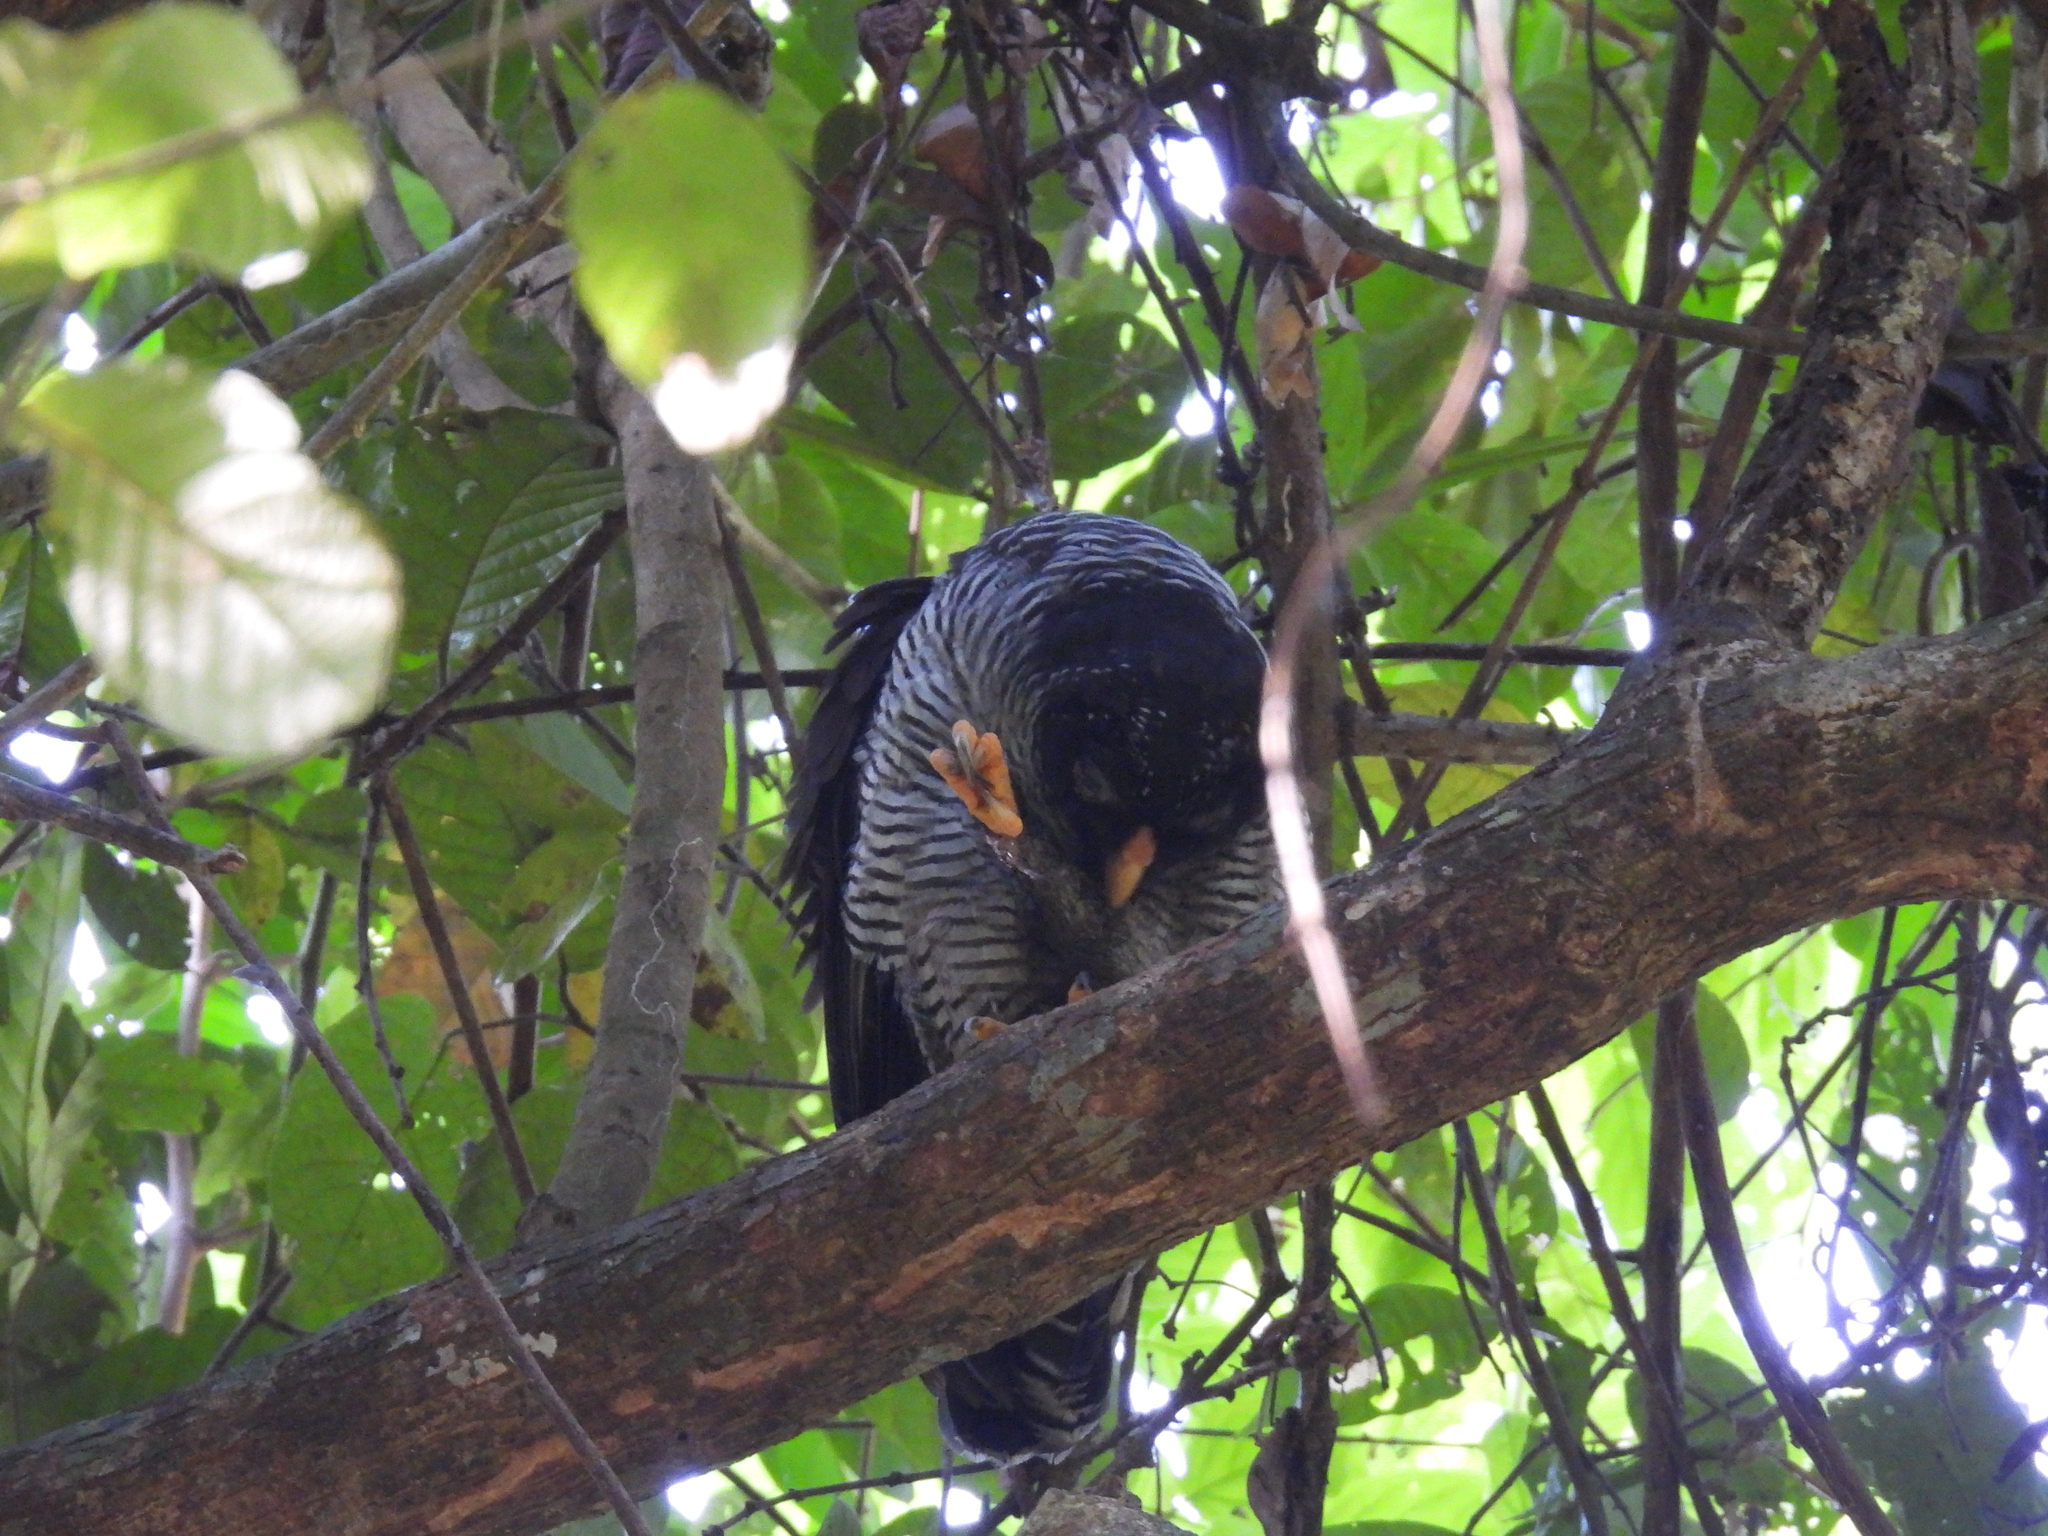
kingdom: Animalia
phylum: Chordata
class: Aves
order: Strigiformes
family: Strigidae
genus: Strix
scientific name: Strix nigrolineata
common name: Black-and-white owl
